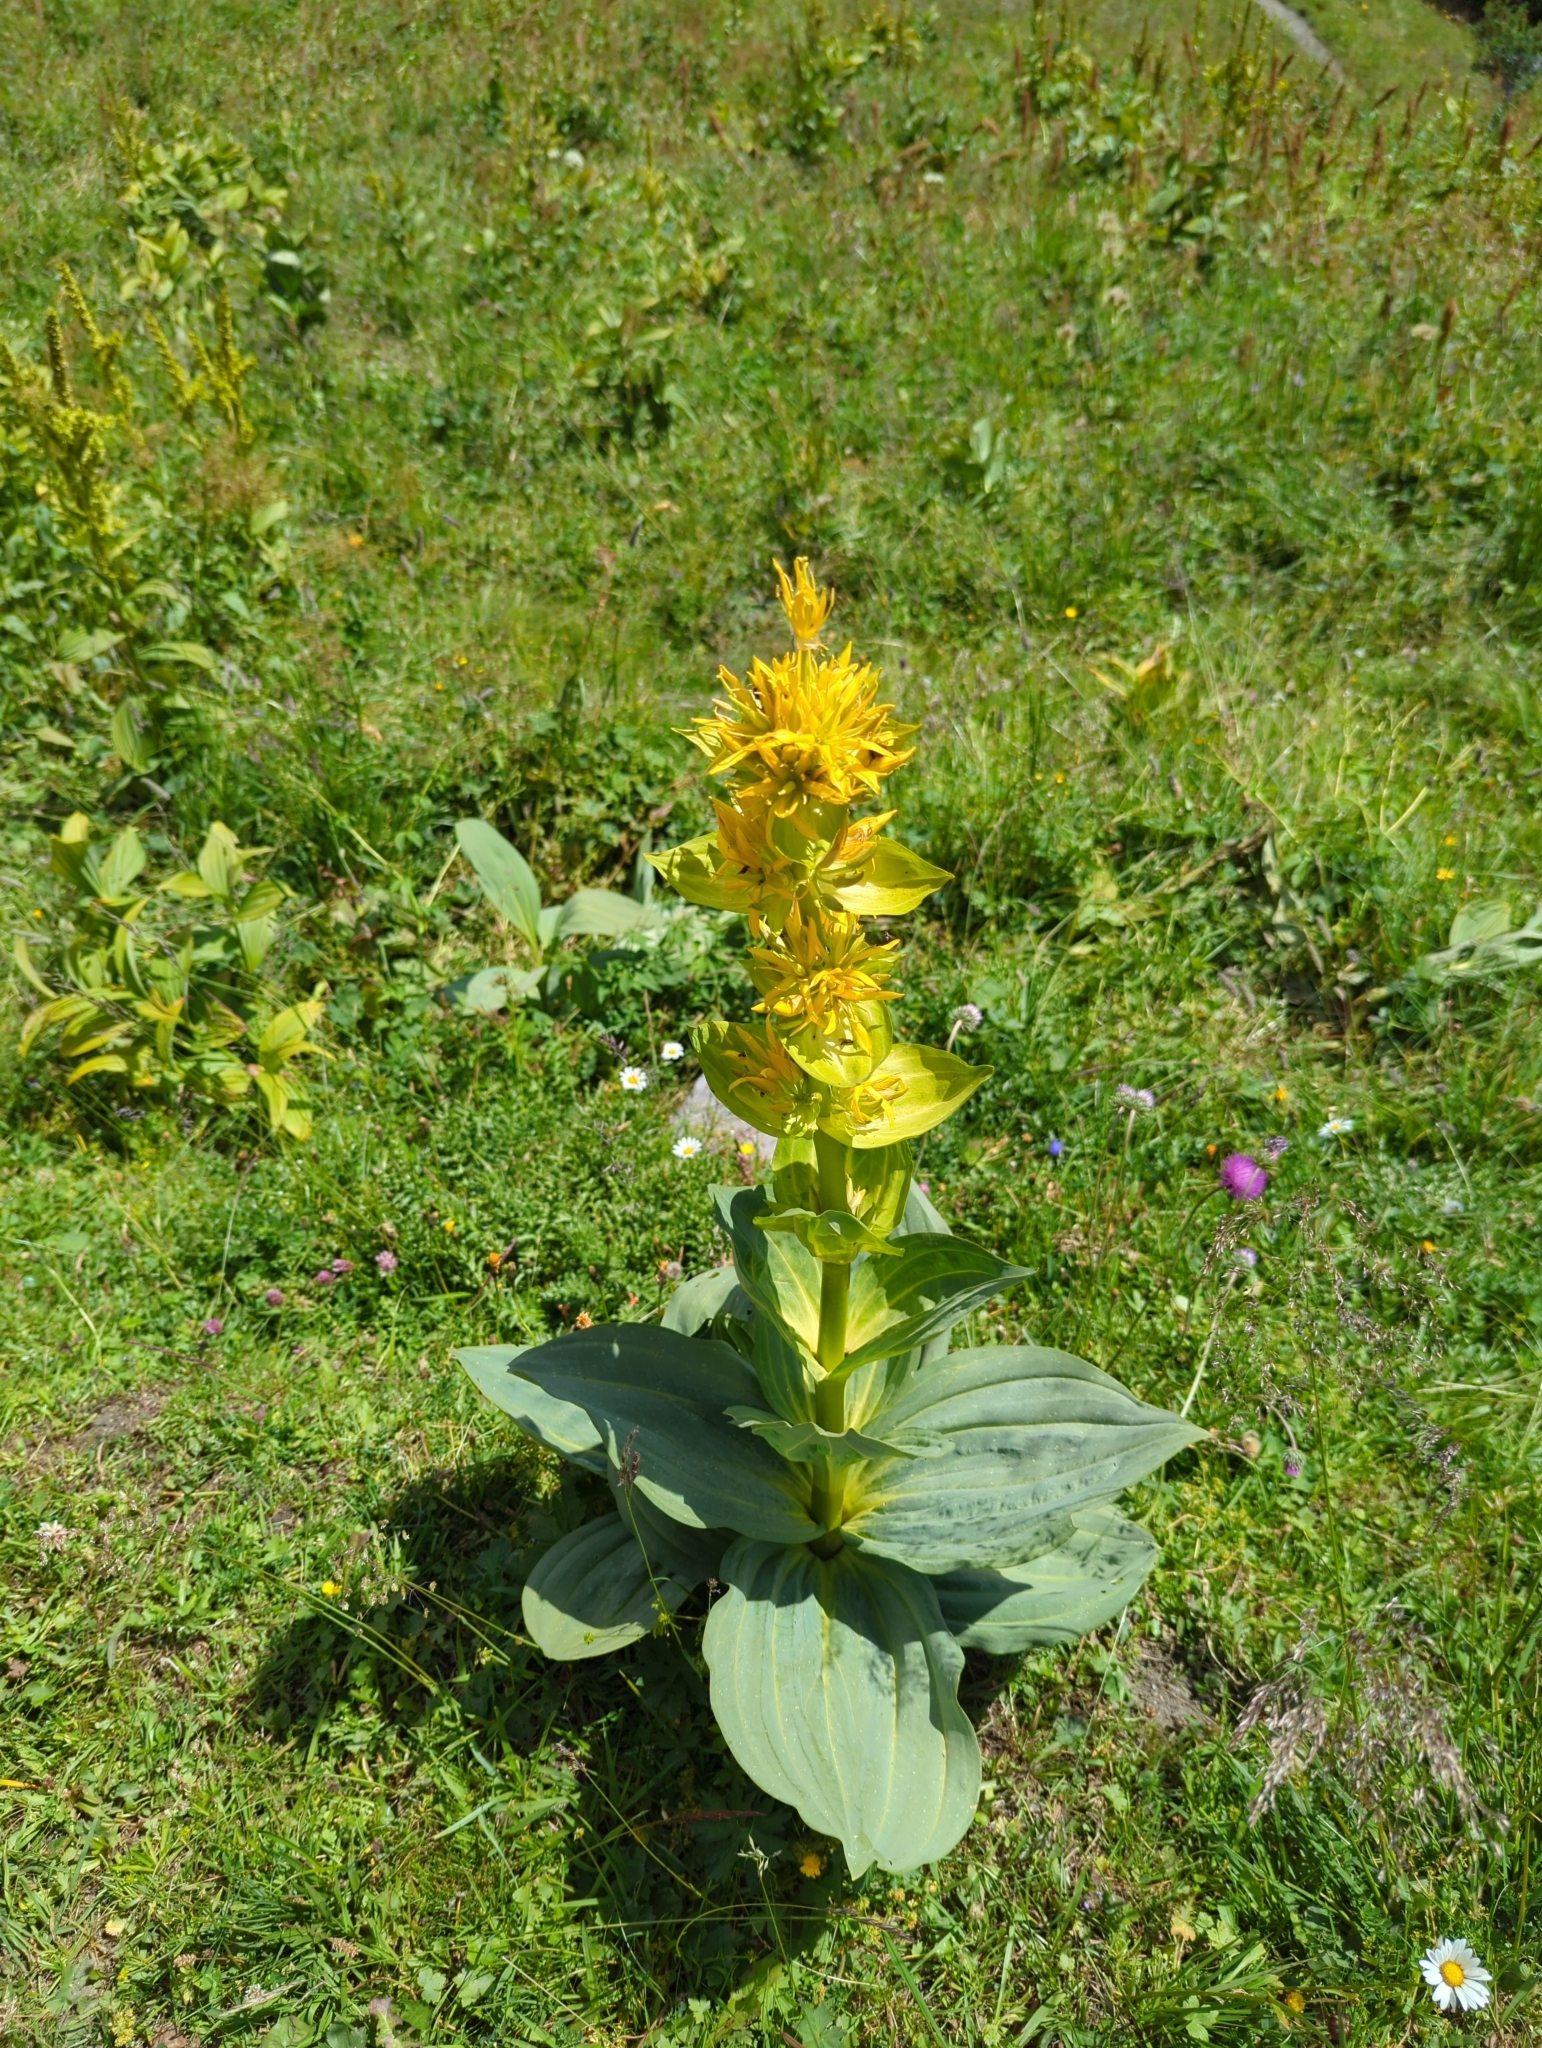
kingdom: Plantae
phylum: Tracheophyta
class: Magnoliopsida
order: Gentianales
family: Gentianaceae
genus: Gentiana
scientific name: Gentiana lutea
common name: Great yellow gentian
